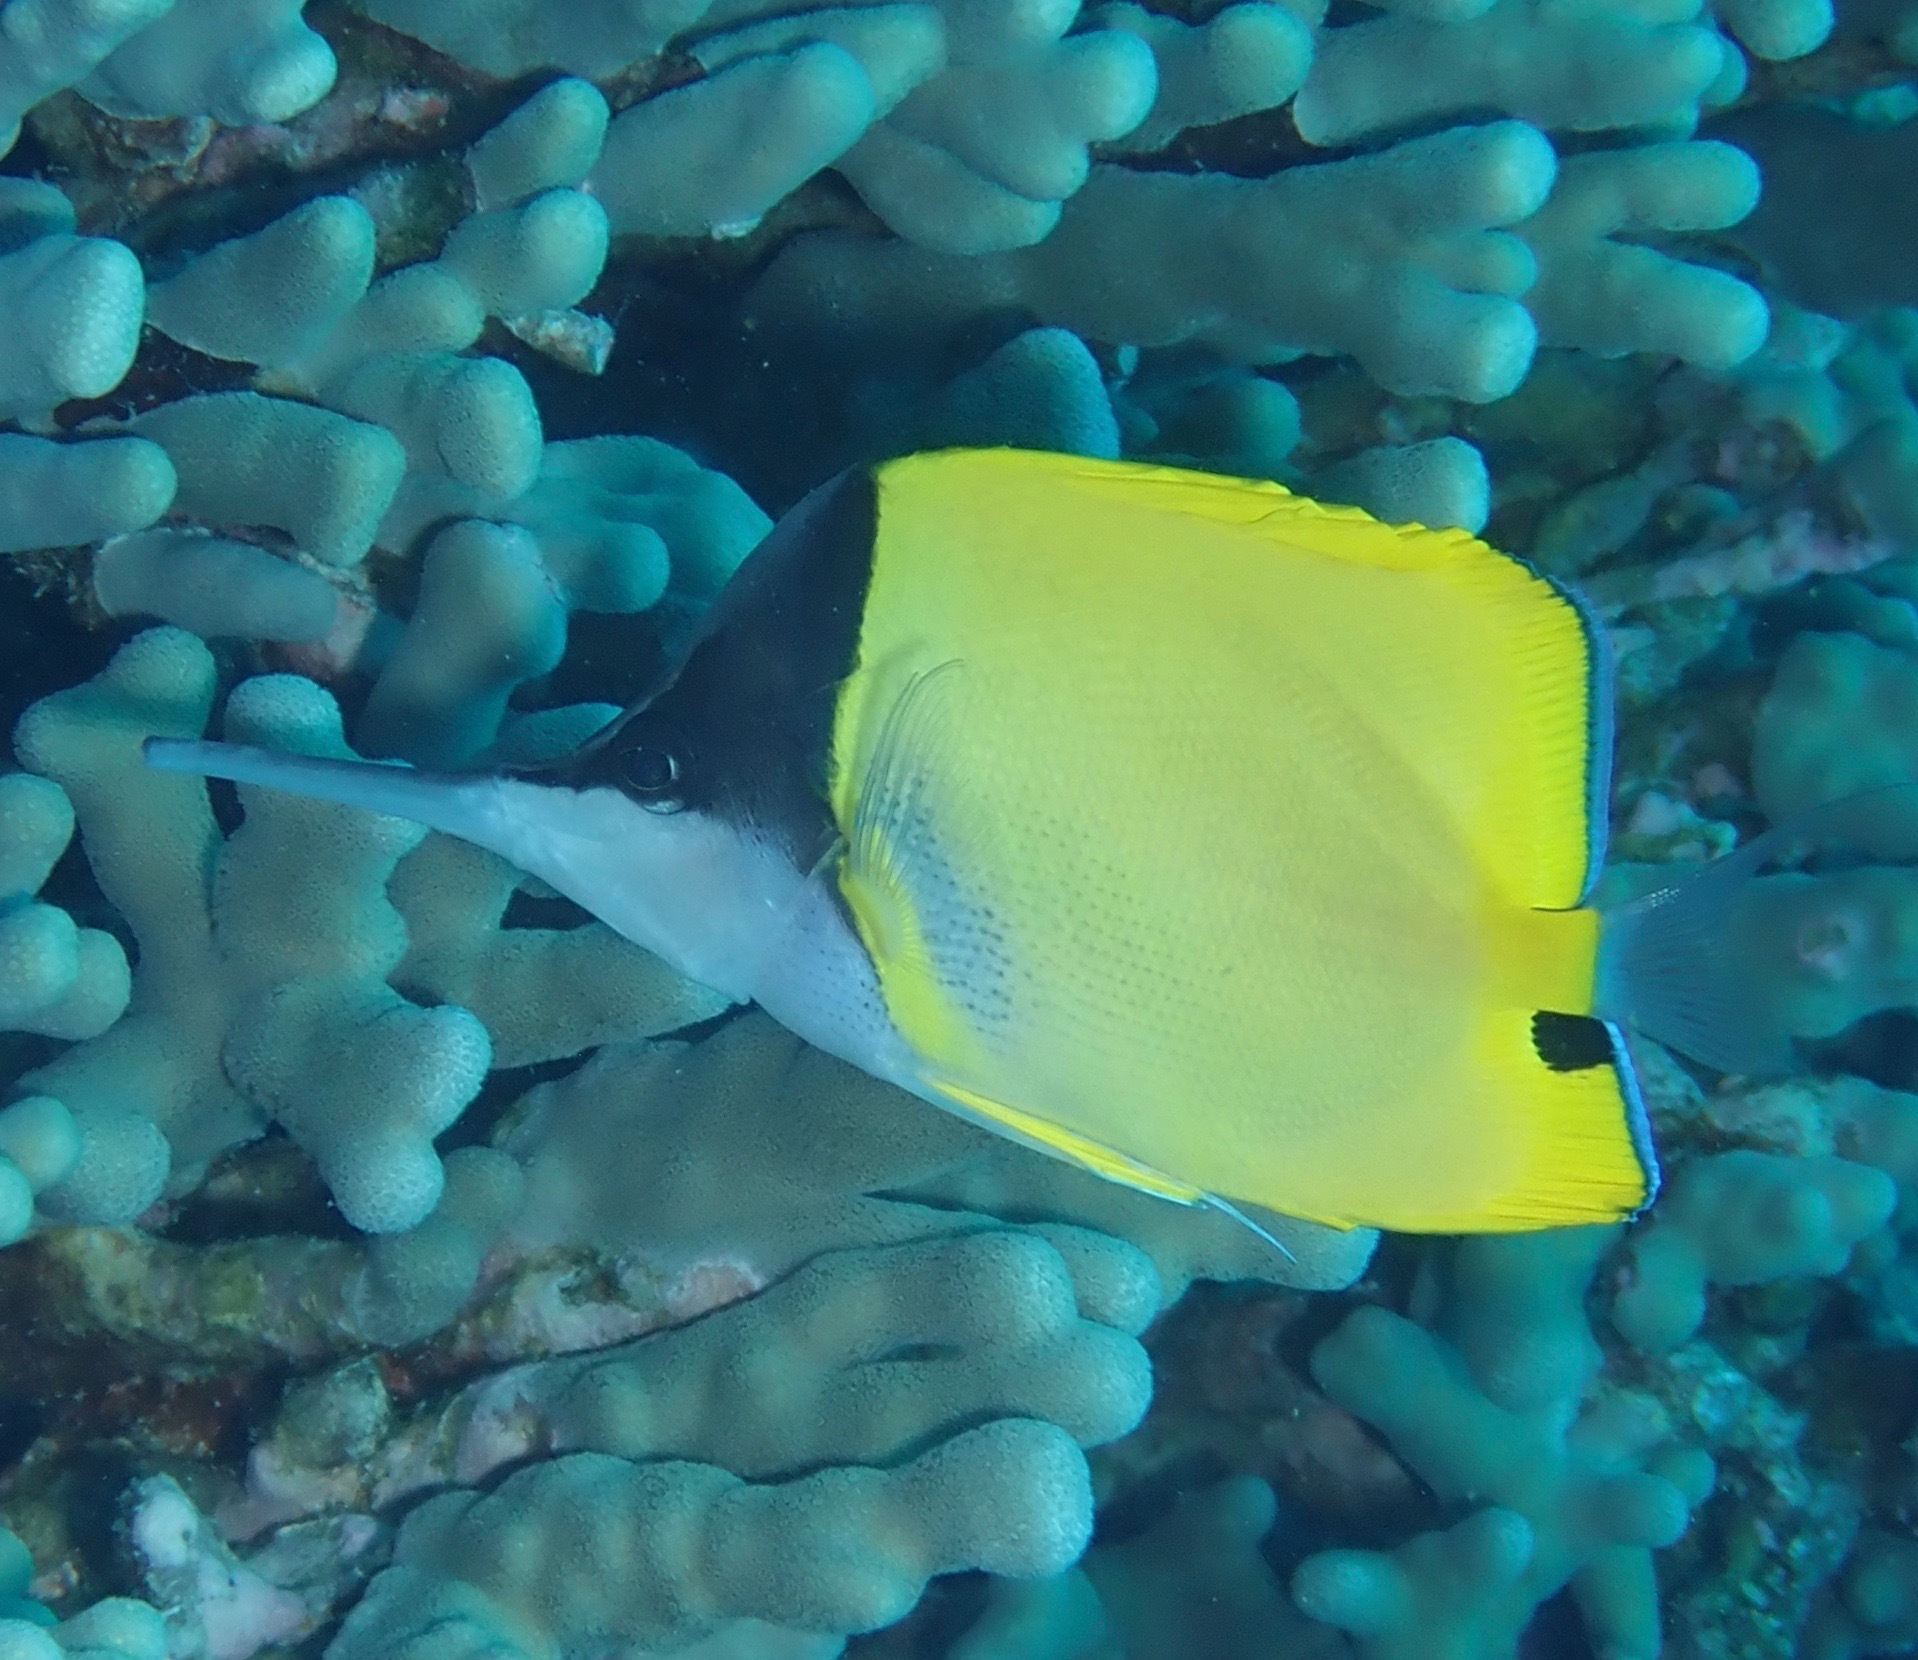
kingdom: Animalia
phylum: Chordata
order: Perciformes
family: Chaetodontidae
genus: Forcipiger
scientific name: Forcipiger longirostris
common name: Longnose butterflyfish
